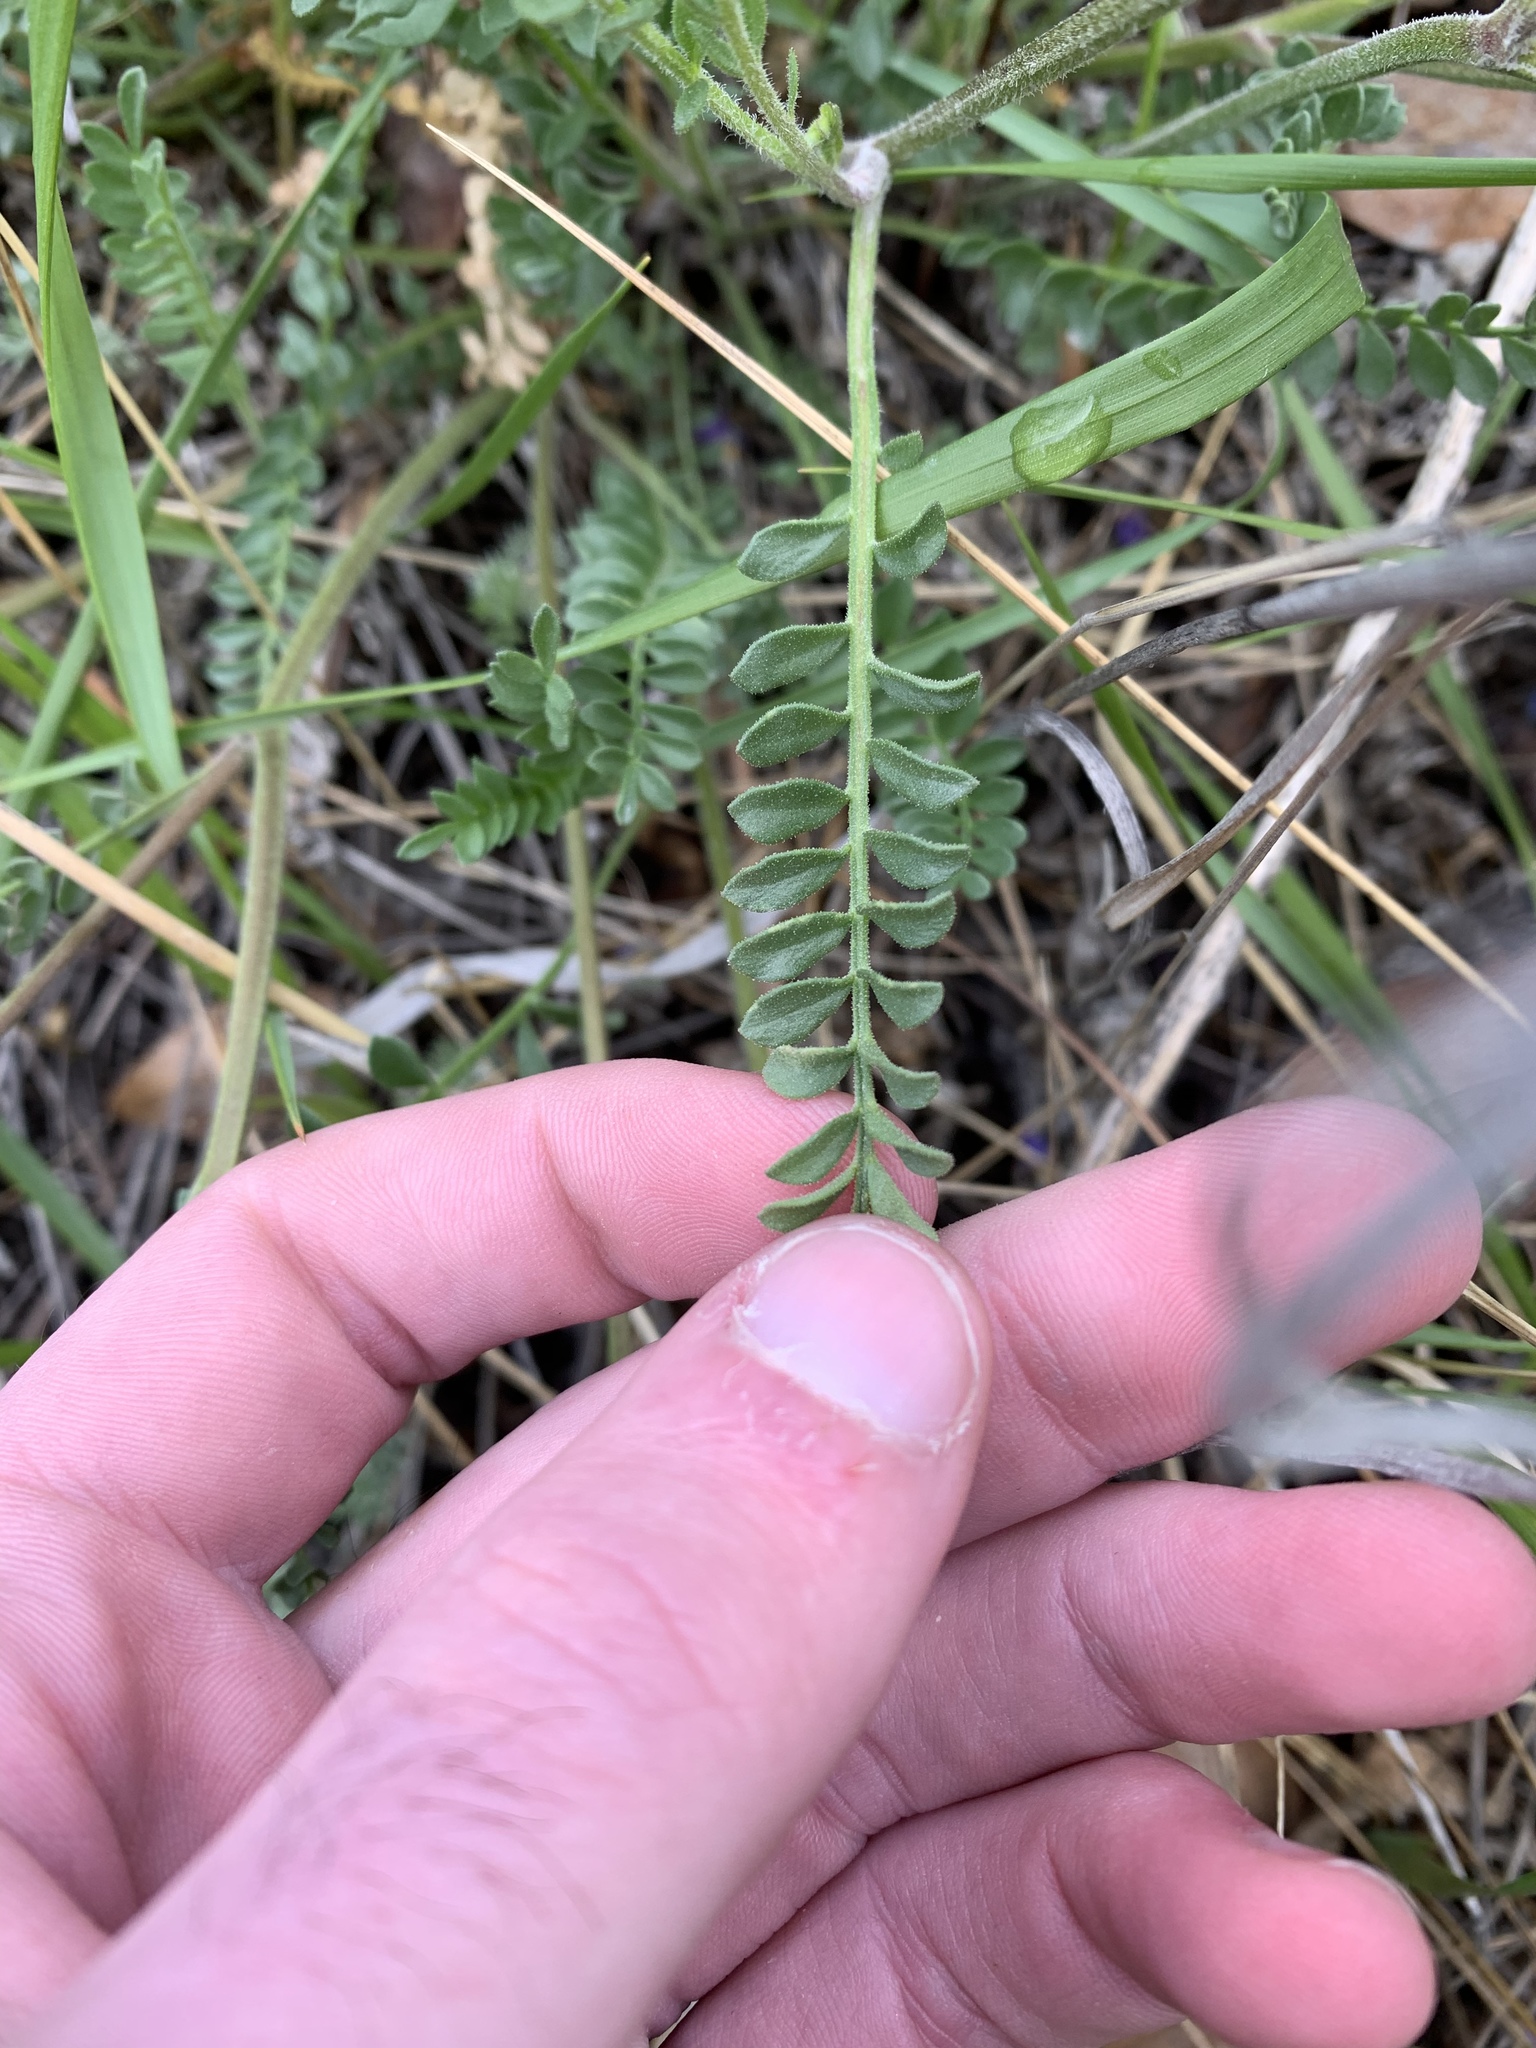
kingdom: Plantae
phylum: Tracheophyta
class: Magnoliopsida
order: Ericales
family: Polemoniaceae
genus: Polemonium
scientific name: Polemonium pulcherrimum
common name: Short jacob's-ladder
